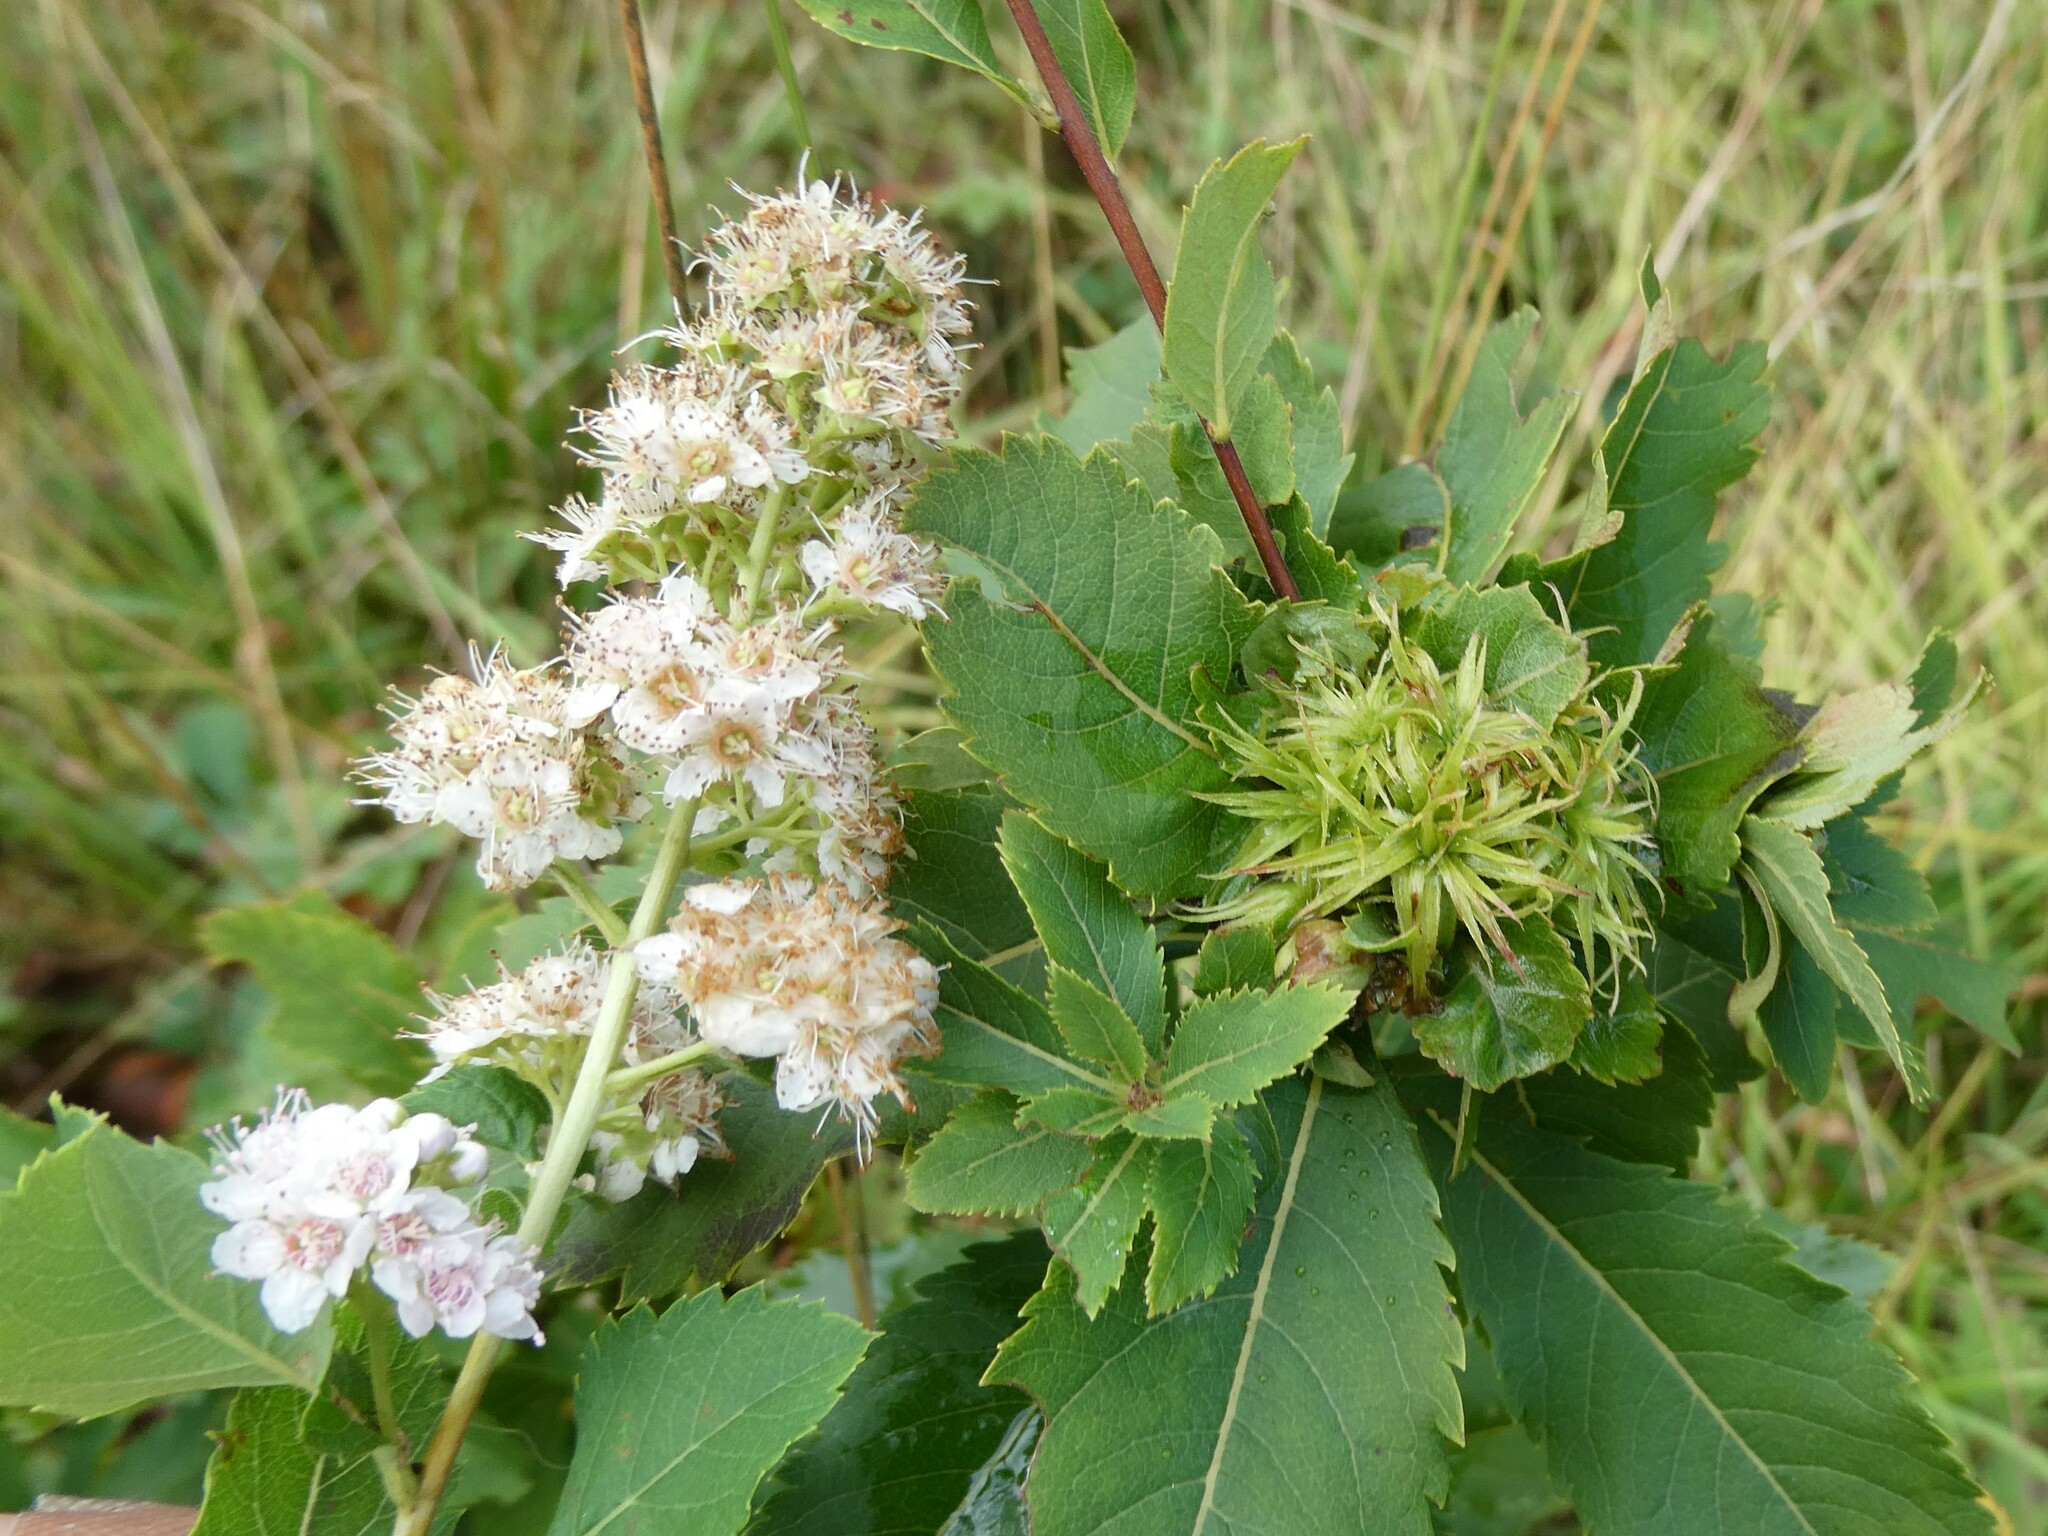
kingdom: Animalia
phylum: Arthropoda
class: Insecta
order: Diptera
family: Cecidomyiidae
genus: Clinodiplosis
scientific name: Clinodiplosis lappa
